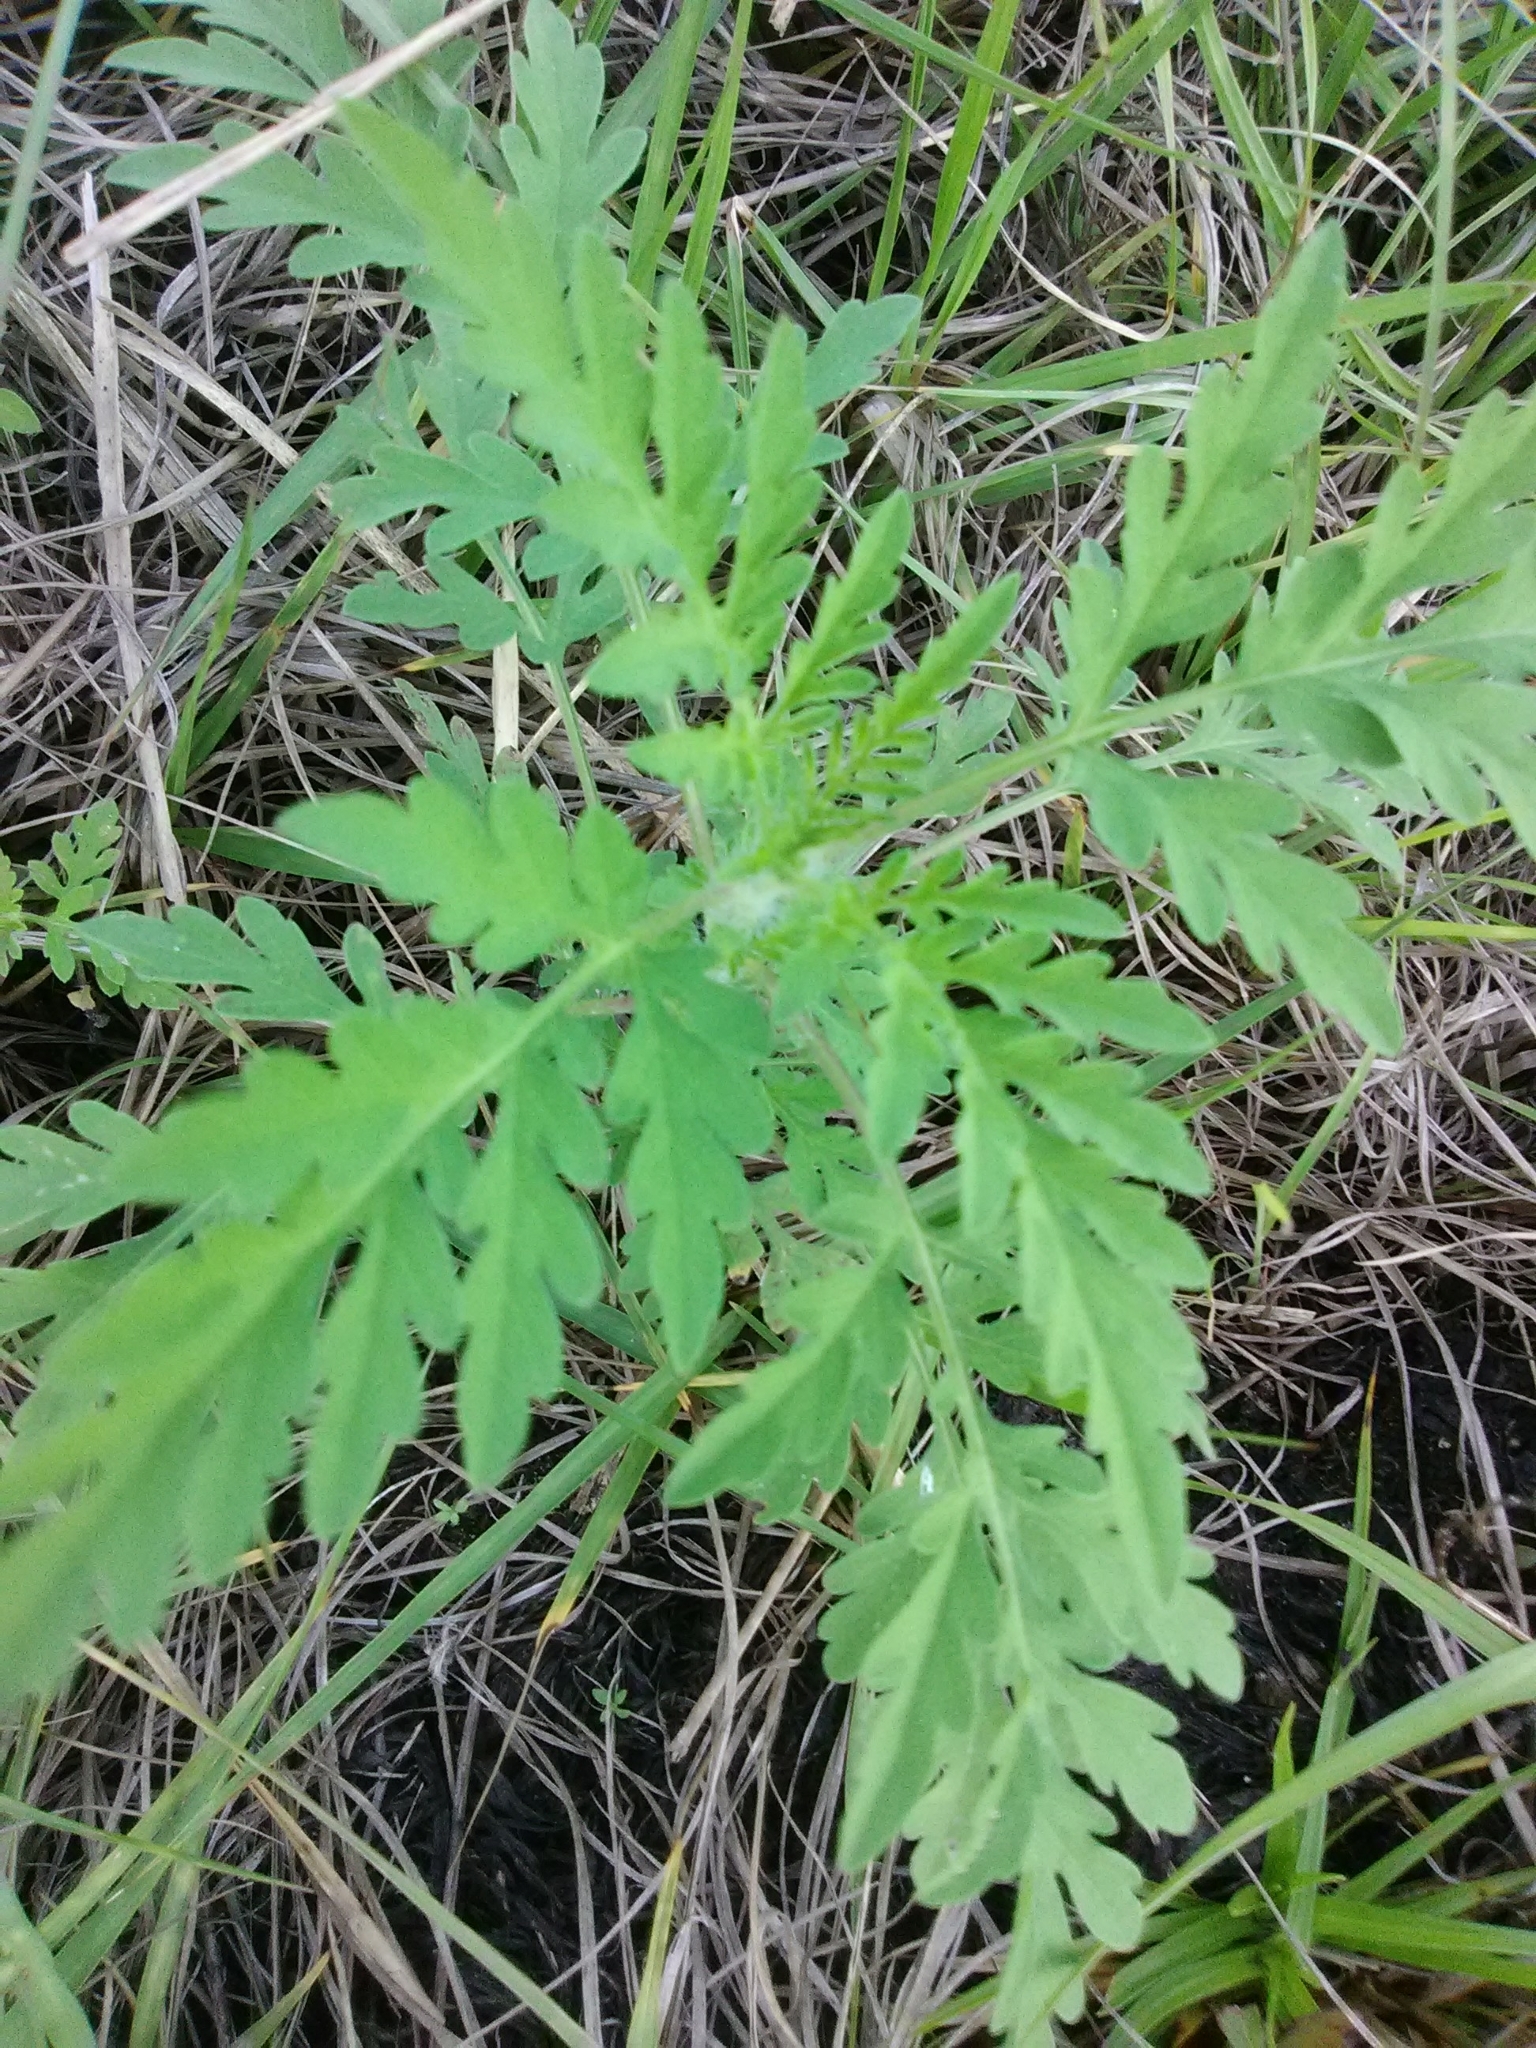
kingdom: Plantae
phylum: Tracheophyta
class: Magnoliopsida
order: Asterales
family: Asteraceae
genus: Ambrosia
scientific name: Ambrosia artemisiifolia
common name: Annual ragweed
